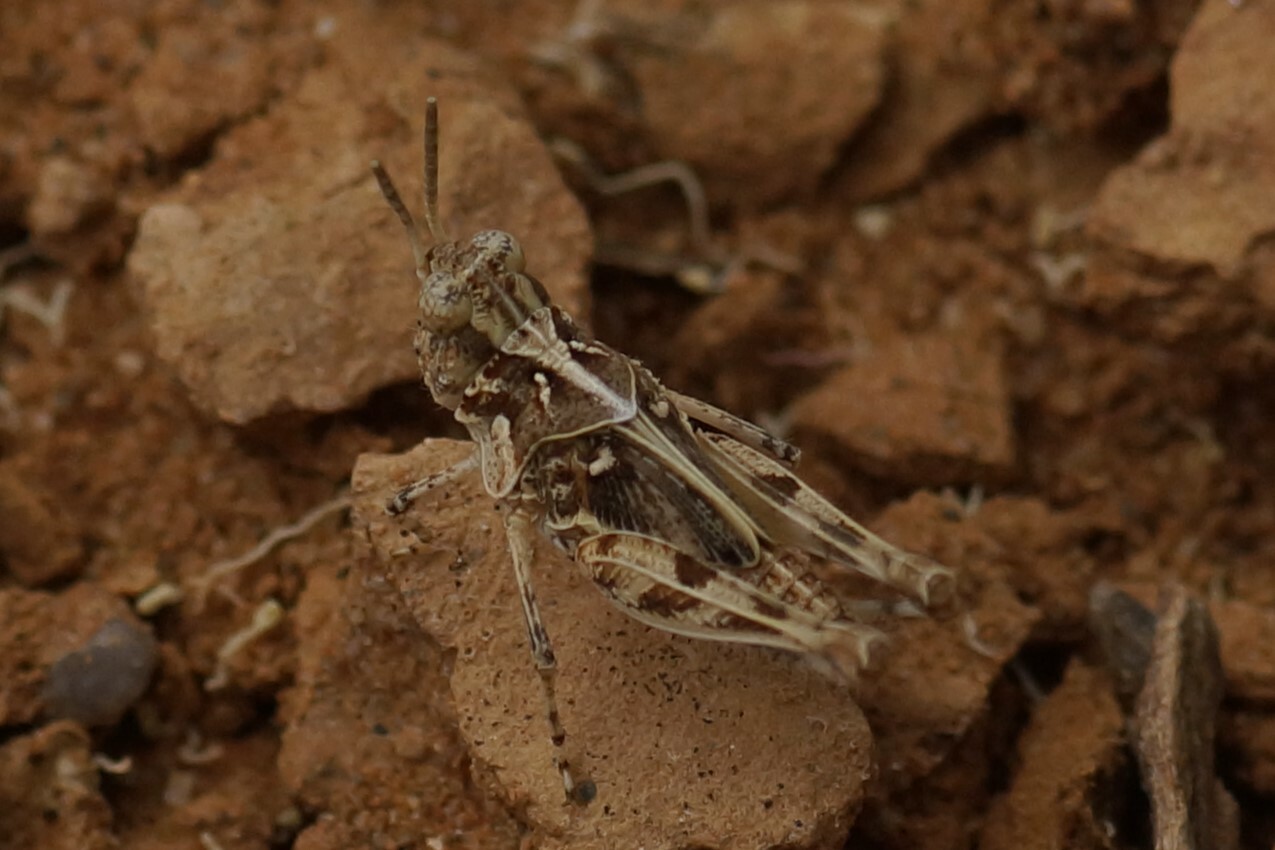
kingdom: Animalia
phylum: Arthropoda
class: Insecta
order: Orthoptera
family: Acrididae
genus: Pycnostictus
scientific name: Pycnostictus seriatus
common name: Common bandwing
